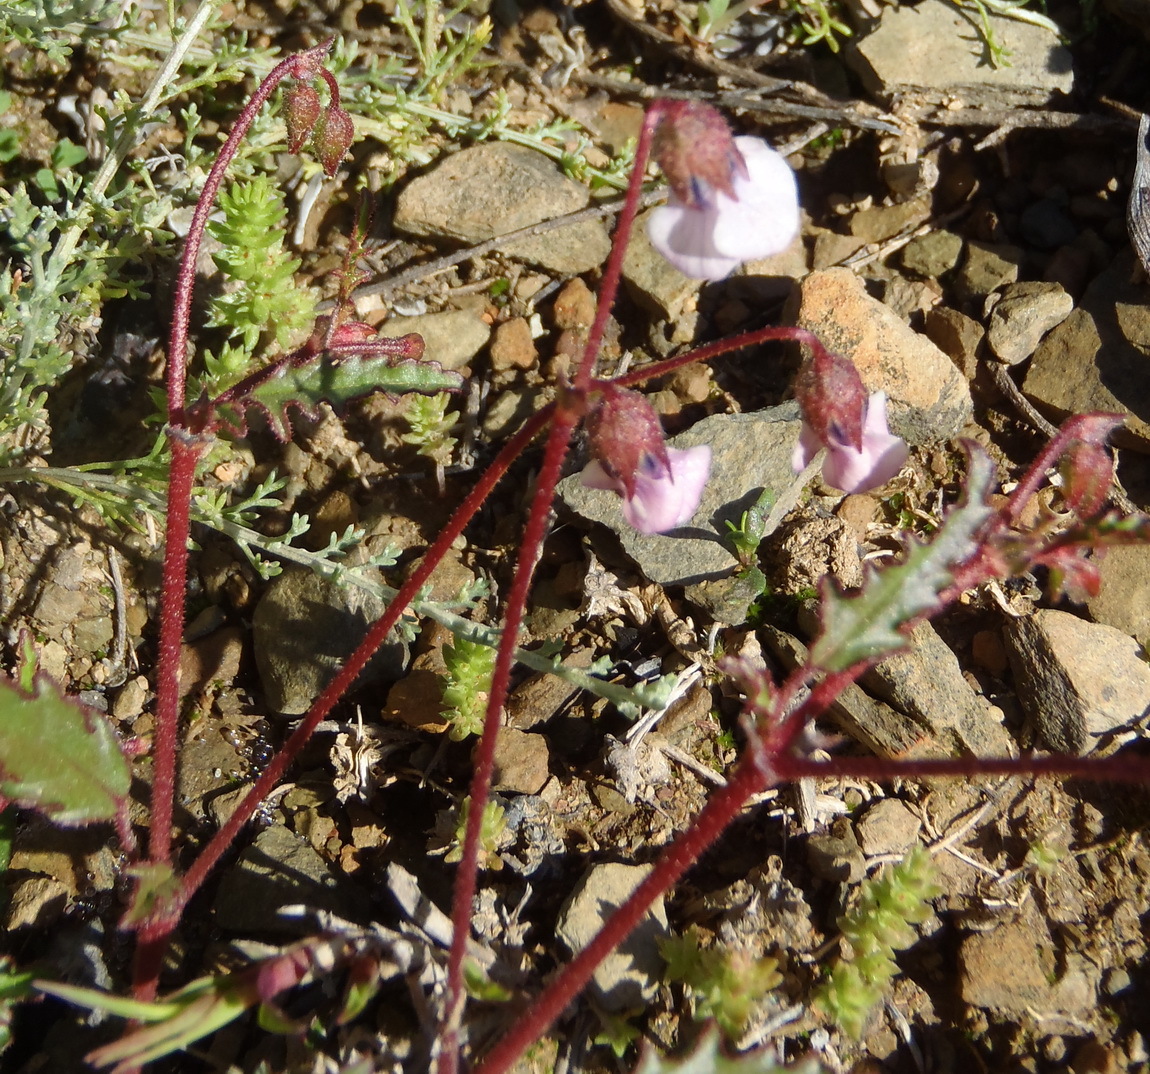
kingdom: Plantae
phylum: Tracheophyta
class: Magnoliopsida
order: Malvales
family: Malvaceae
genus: Hermannia
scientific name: Hermannia coccocarpa
